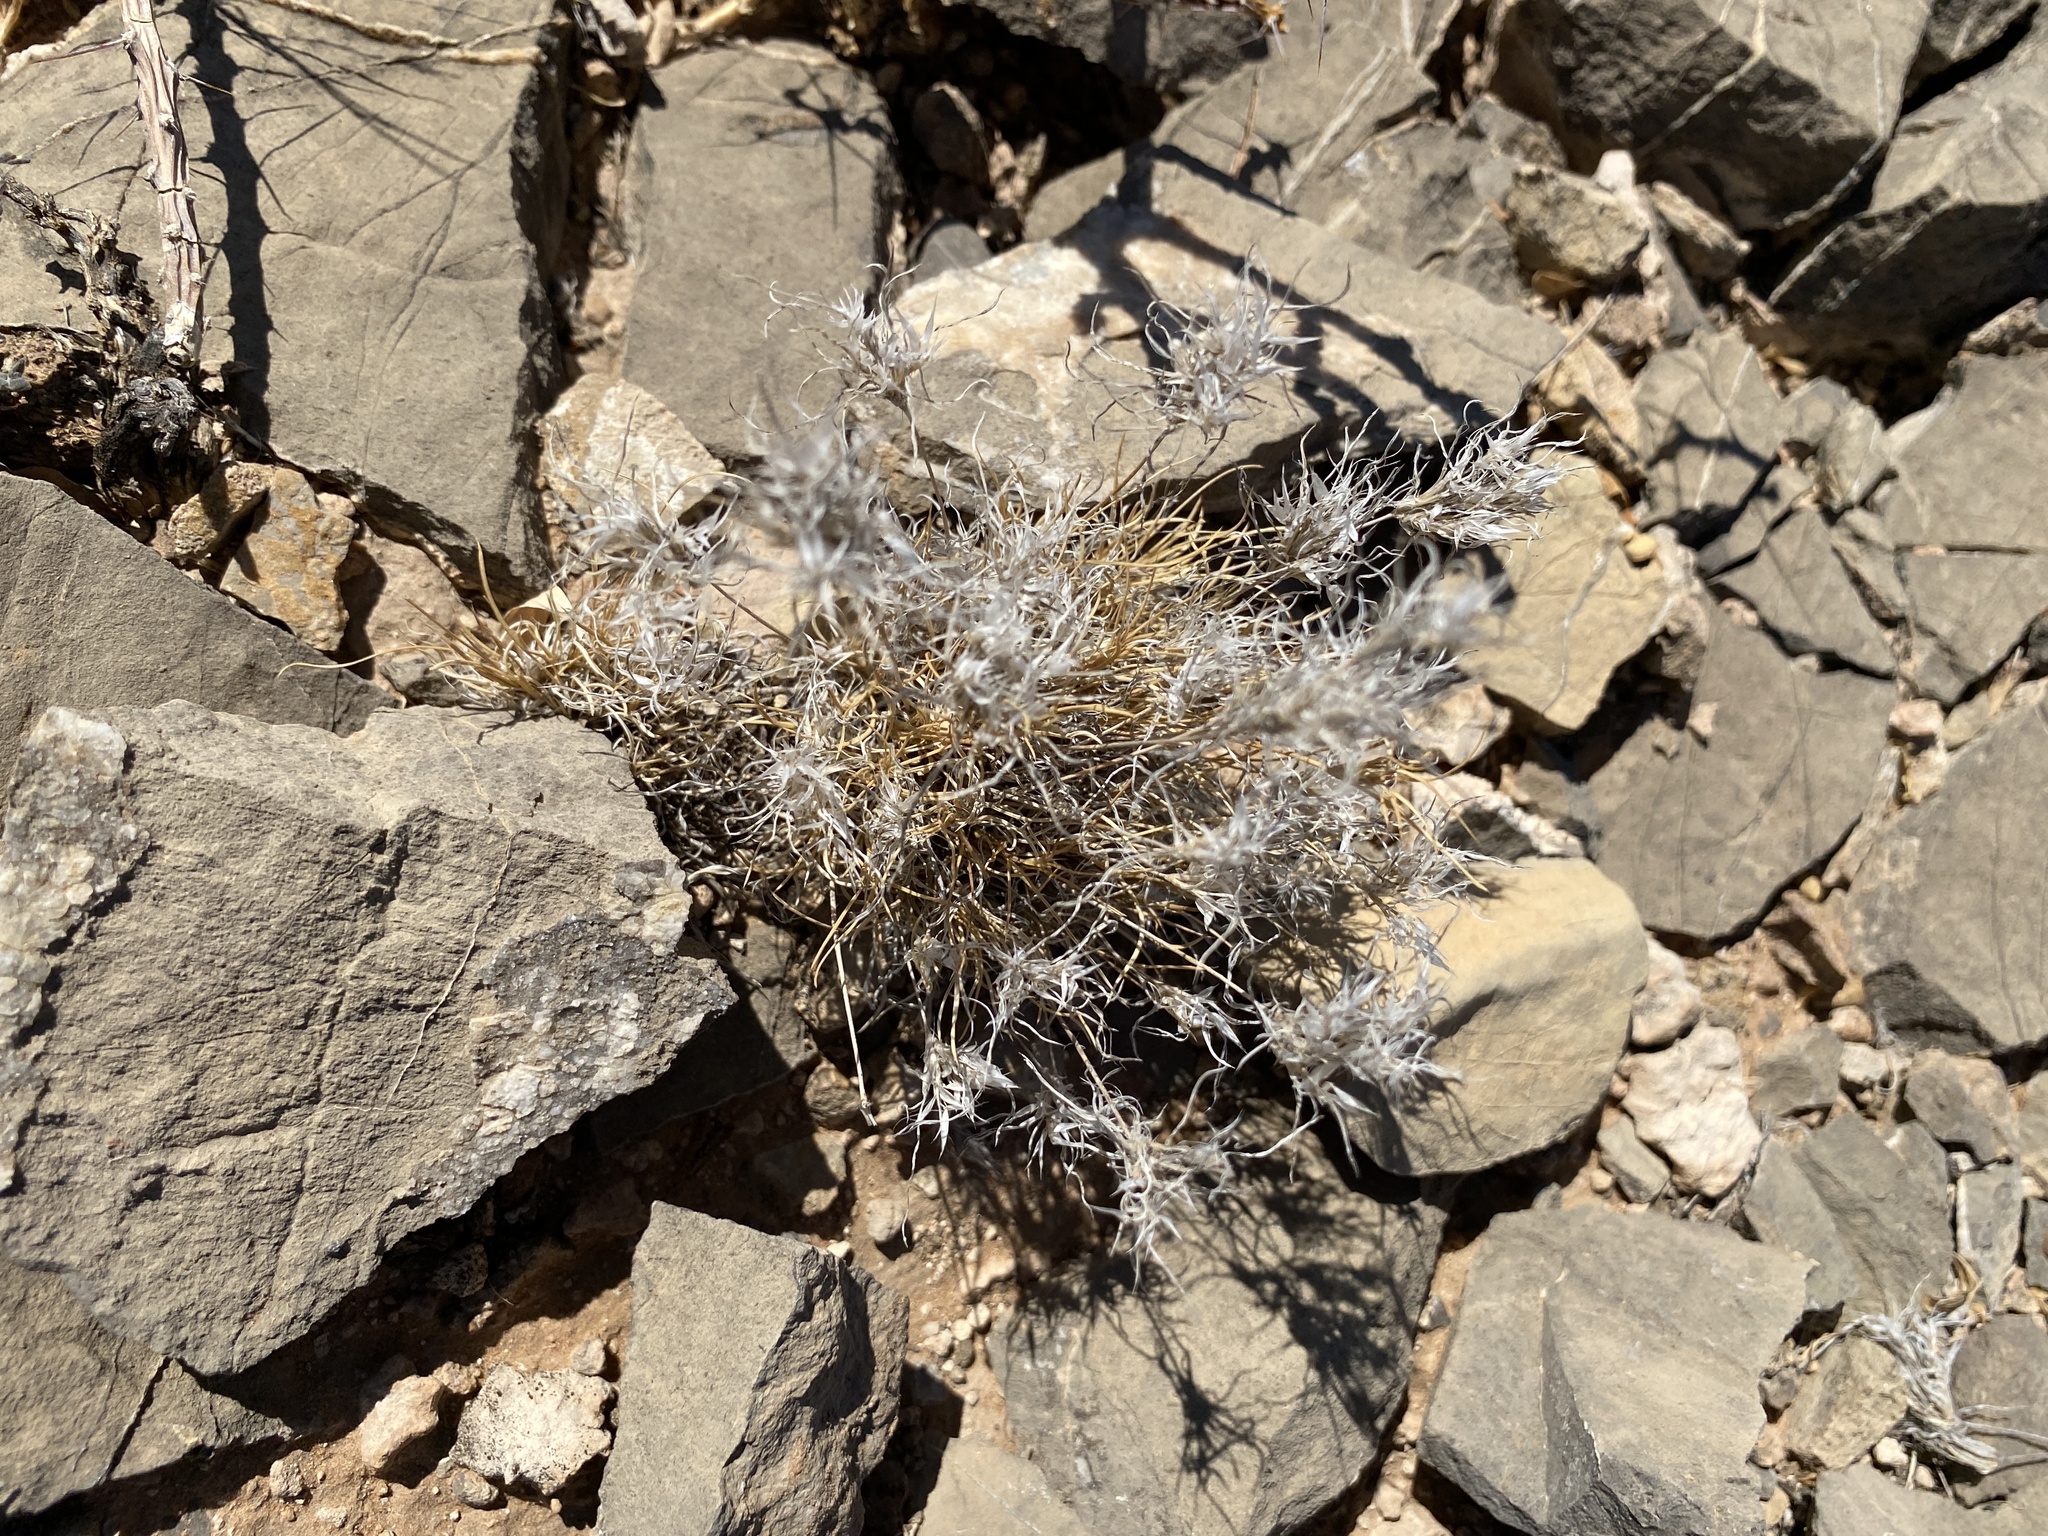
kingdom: Plantae
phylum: Tracheophyta
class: Liliopsida
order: Poales
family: Poaceae
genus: Dasyochloa
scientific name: Dasyochloa pulchella
